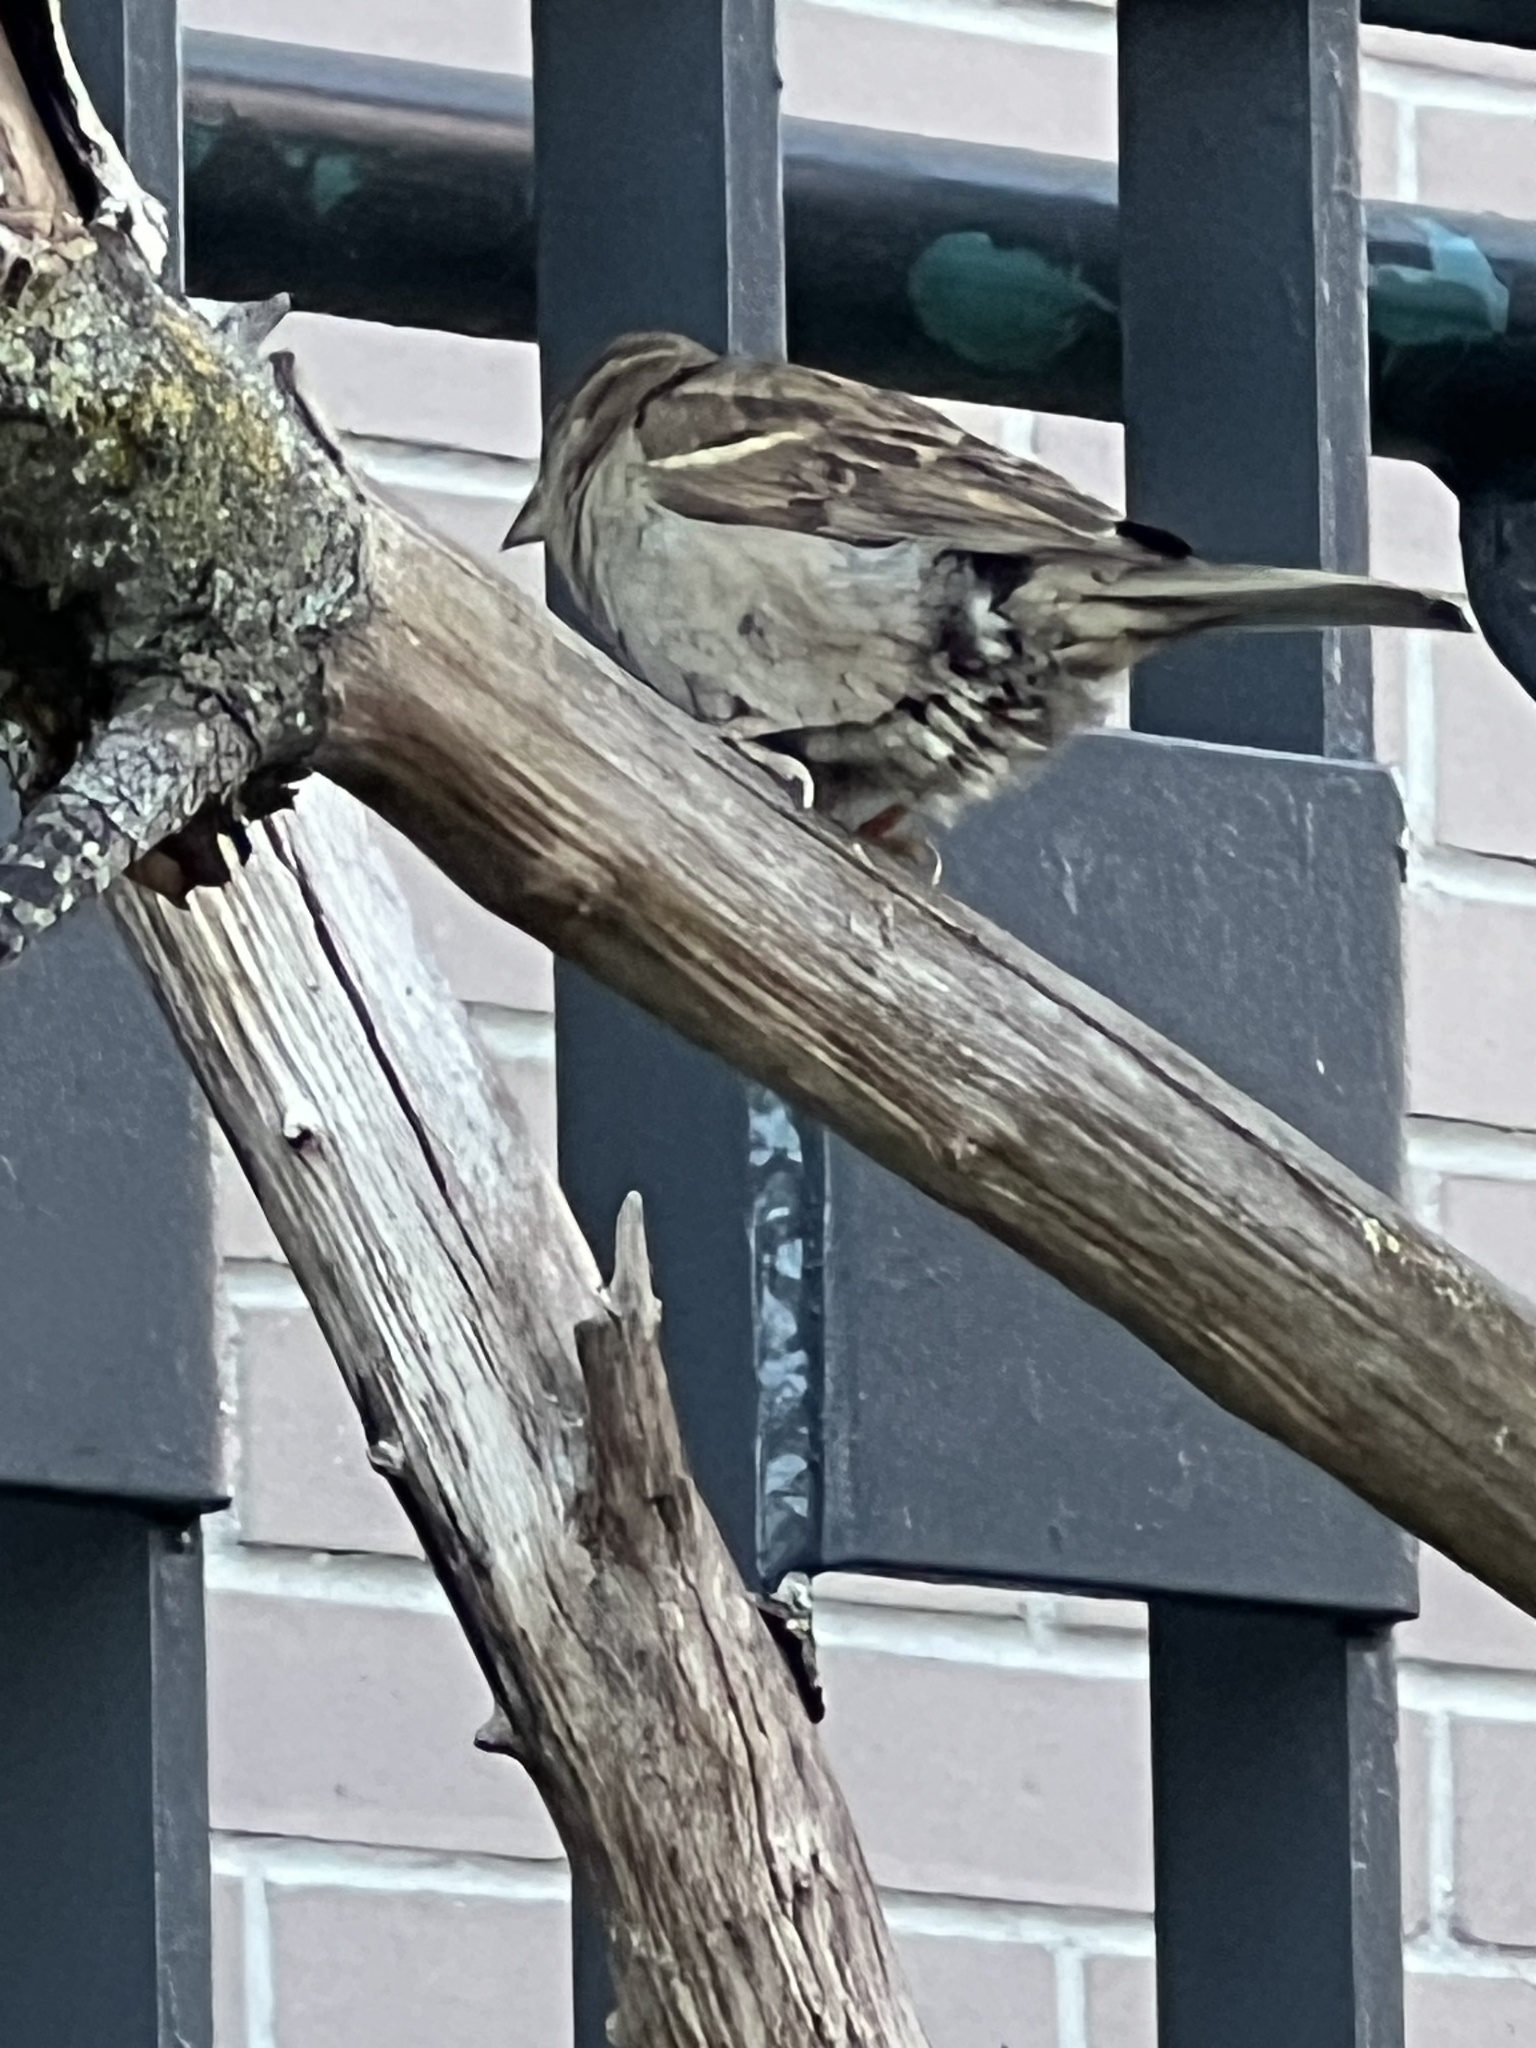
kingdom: Animalia
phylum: Chordata
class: Aves
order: Passeriformes
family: Passeridae
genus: Passer
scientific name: Passer domesticus
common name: House sparrow
